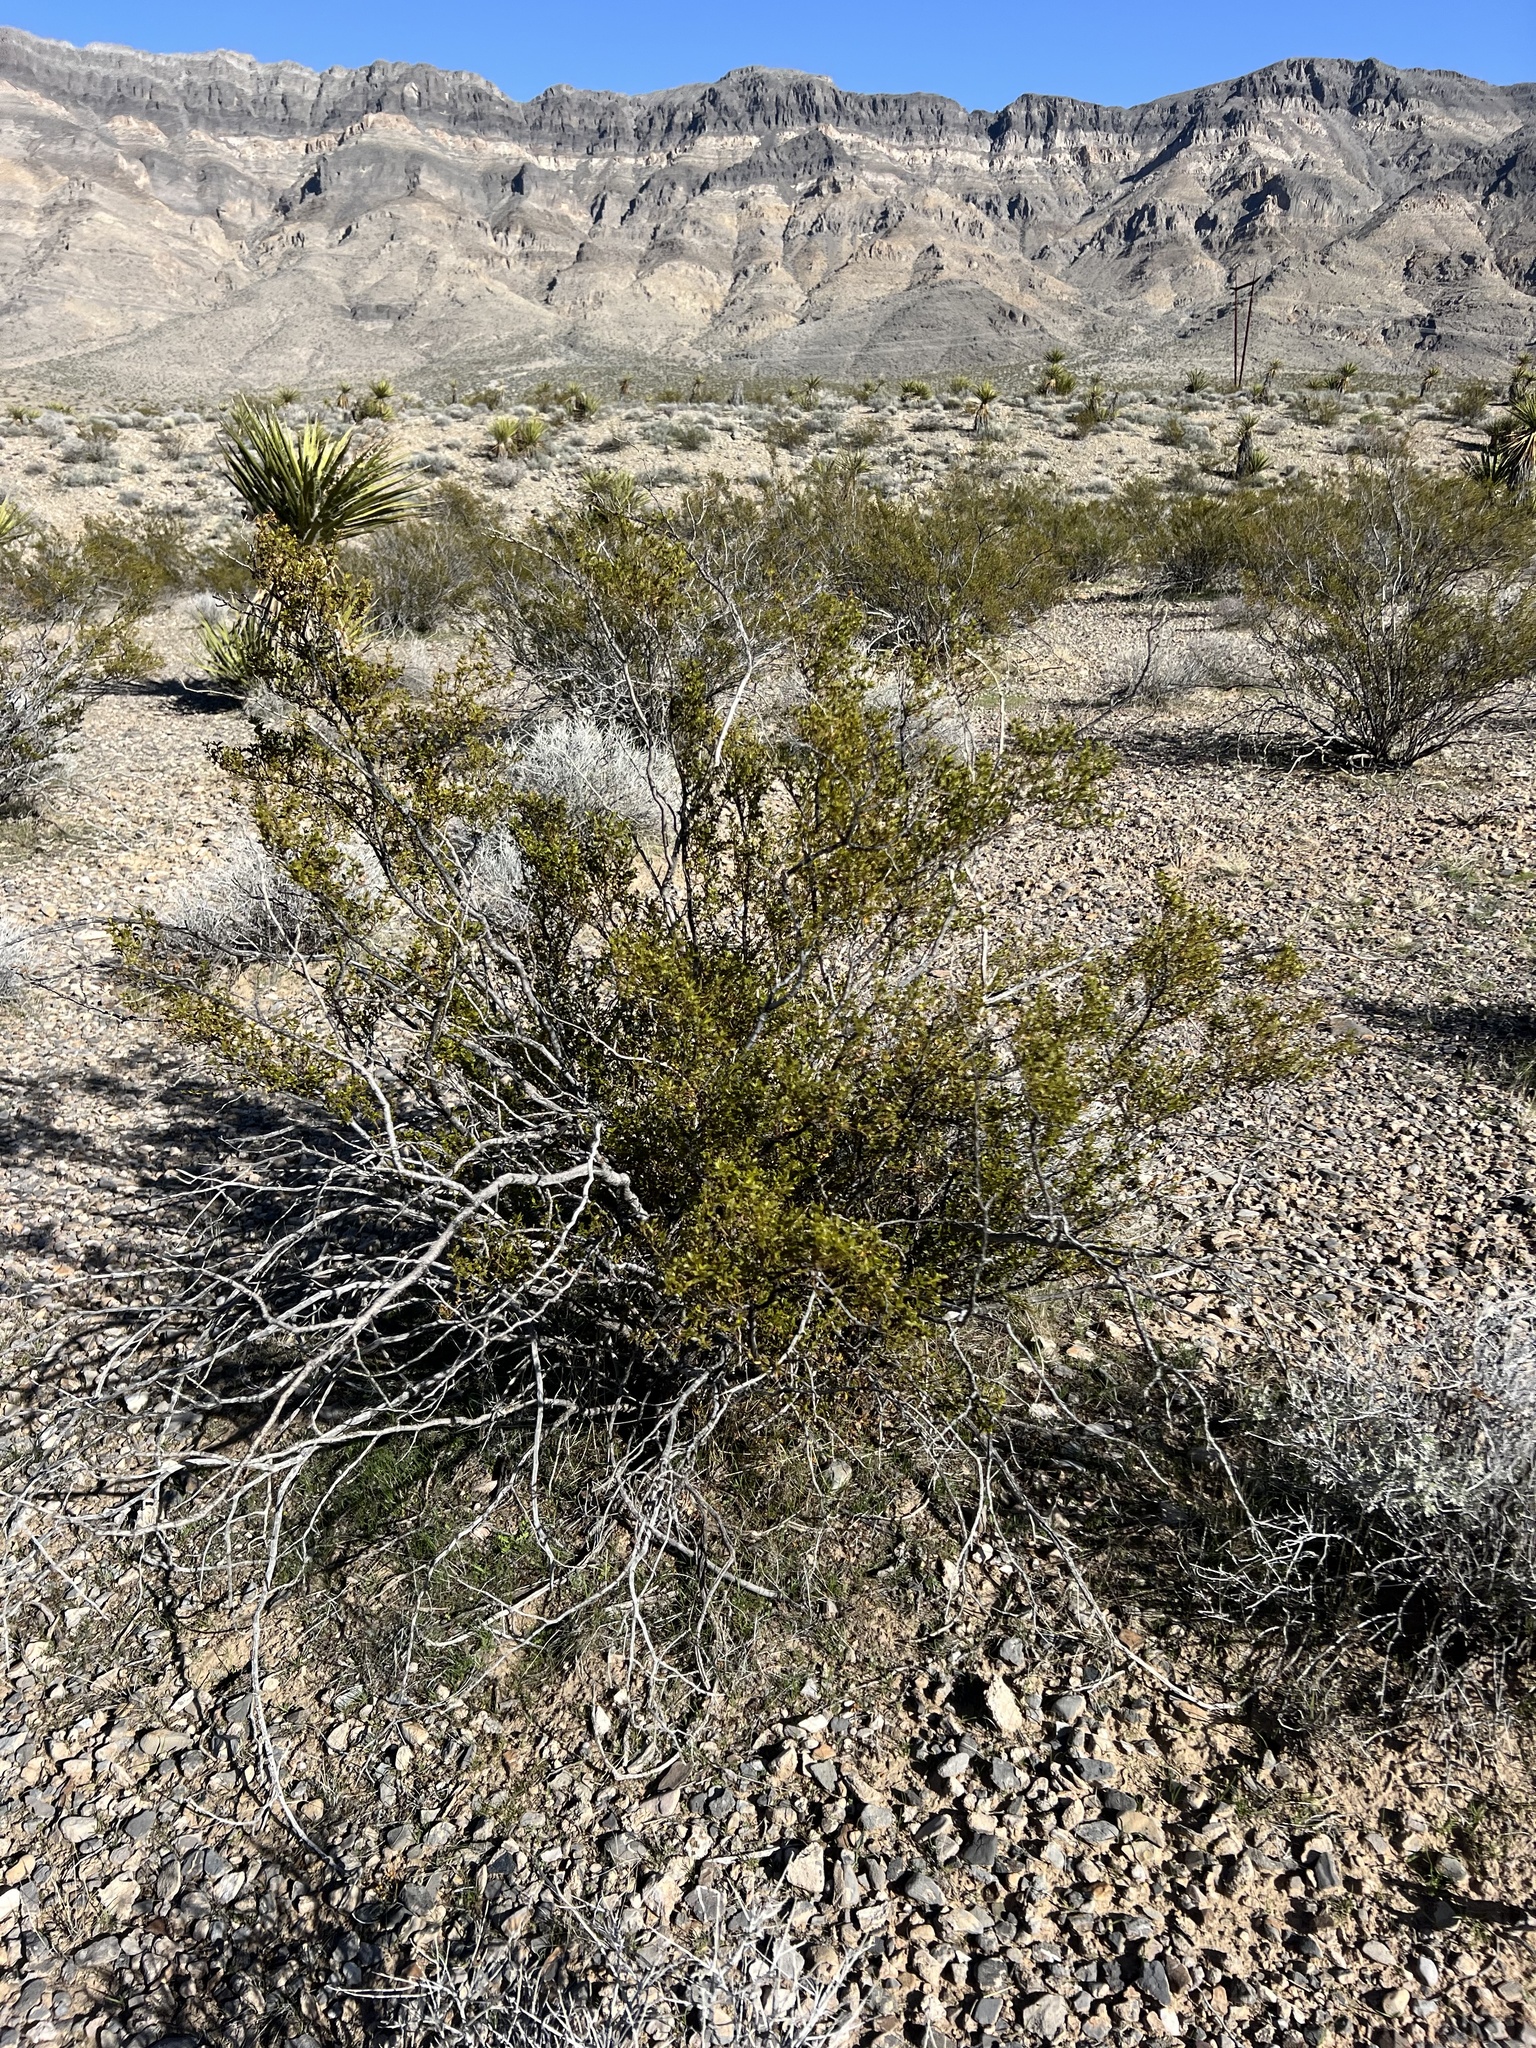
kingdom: Plantae
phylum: Tracheophyta
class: Magnoliopsida
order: Zygophyllales
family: Zygophyllaceae
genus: Larrea
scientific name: Larrea tridentata
